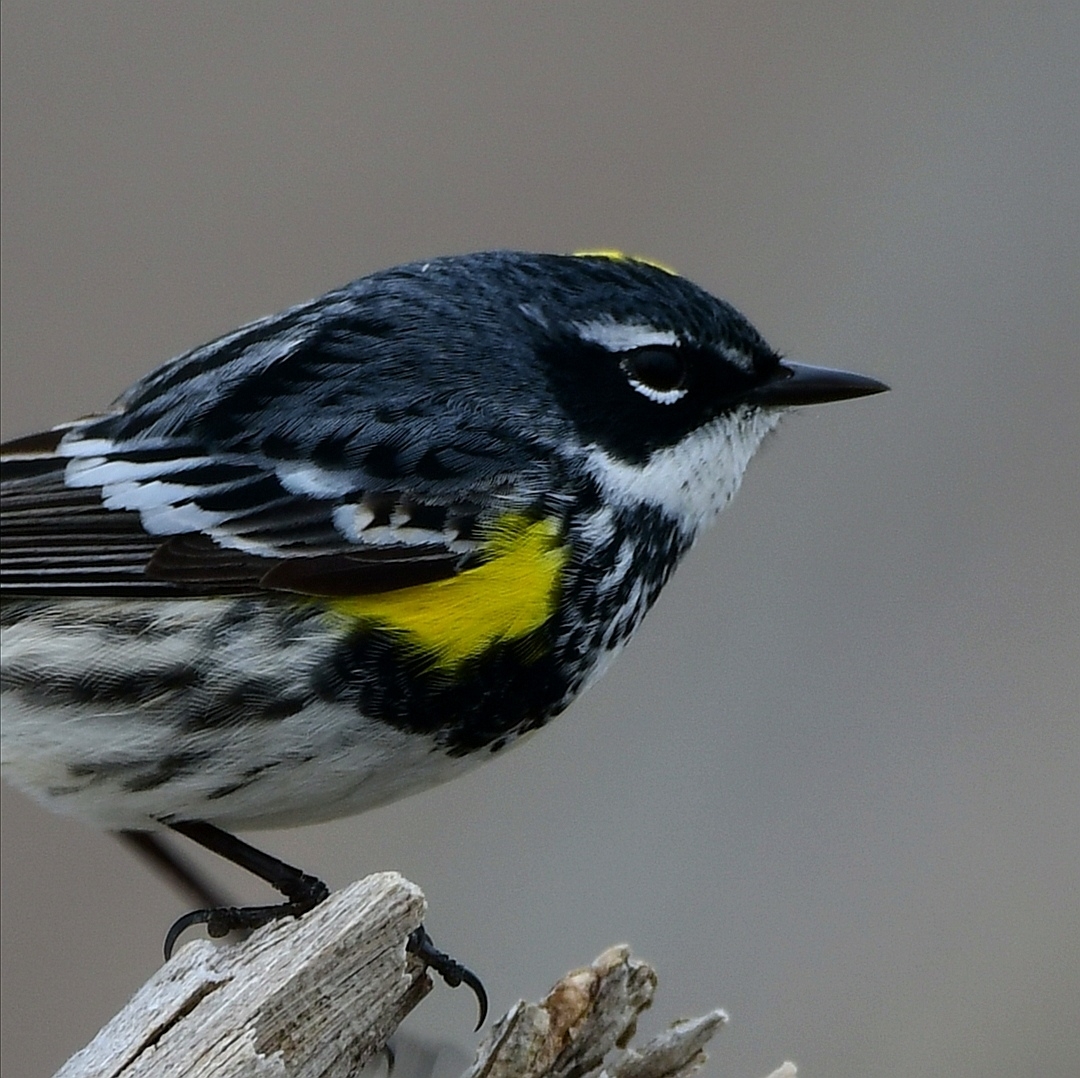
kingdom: Animalia
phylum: Chordata
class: Aves
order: Passeriformes
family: Parulidae
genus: Setophaga
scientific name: Setophaga coronata
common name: Myrtle warbler
